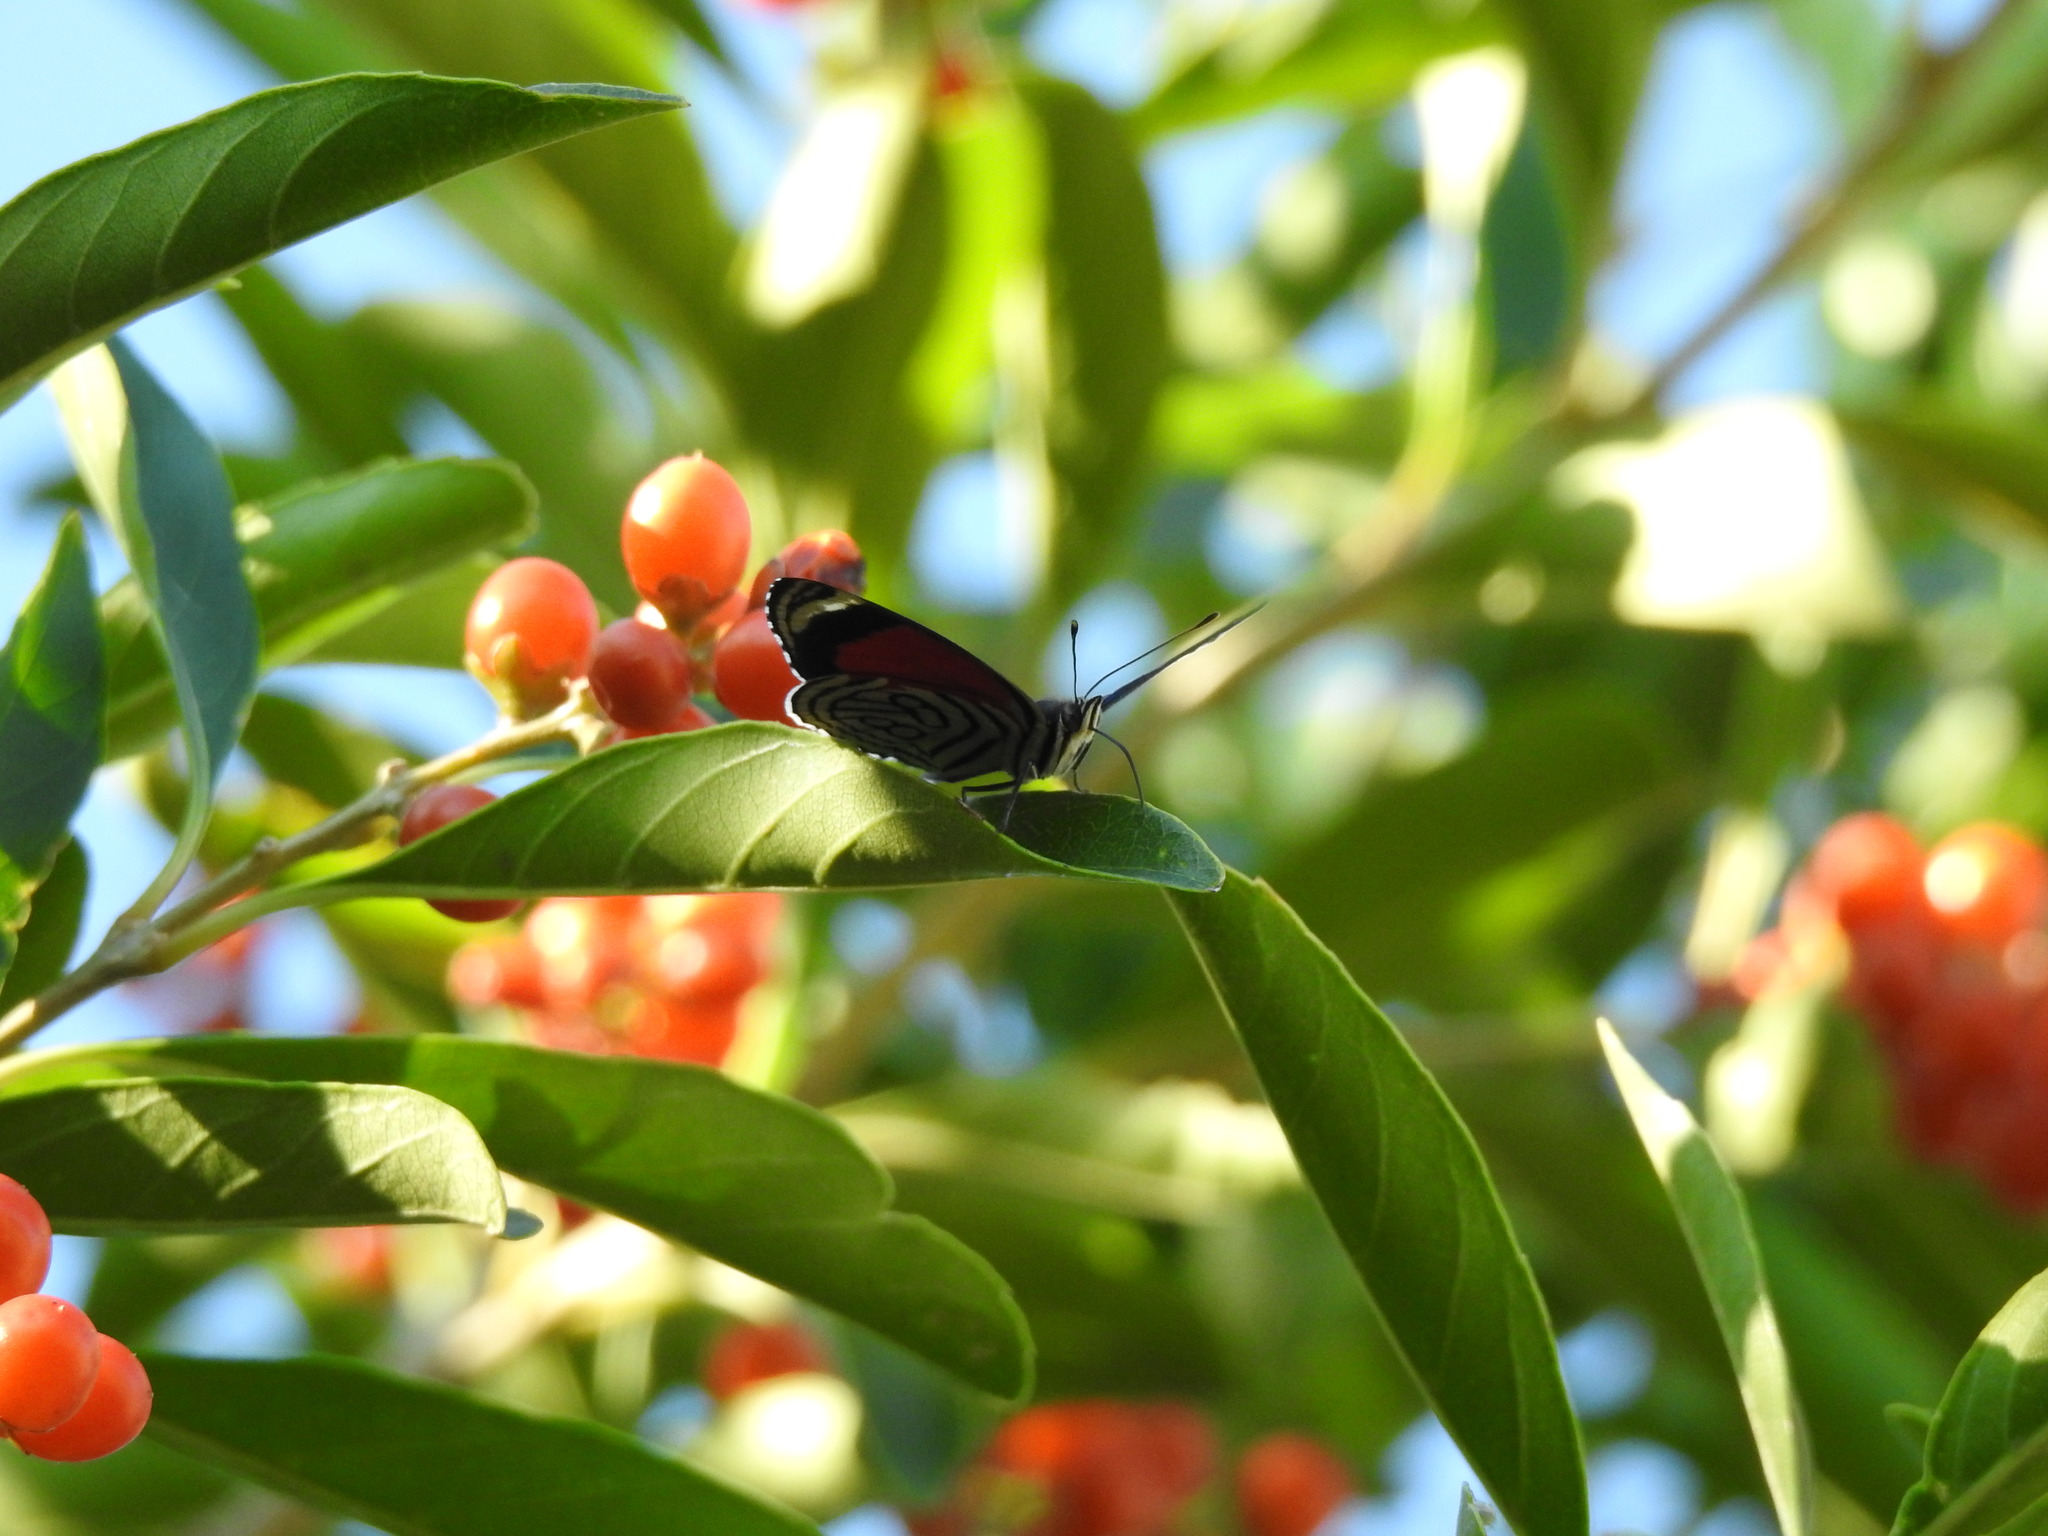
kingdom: Animalia
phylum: Arthropoda
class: Insecta
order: Lepidoptera
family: Nymphalidae
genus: Diaethria
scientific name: Diaethria candrena
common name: Number eighty
